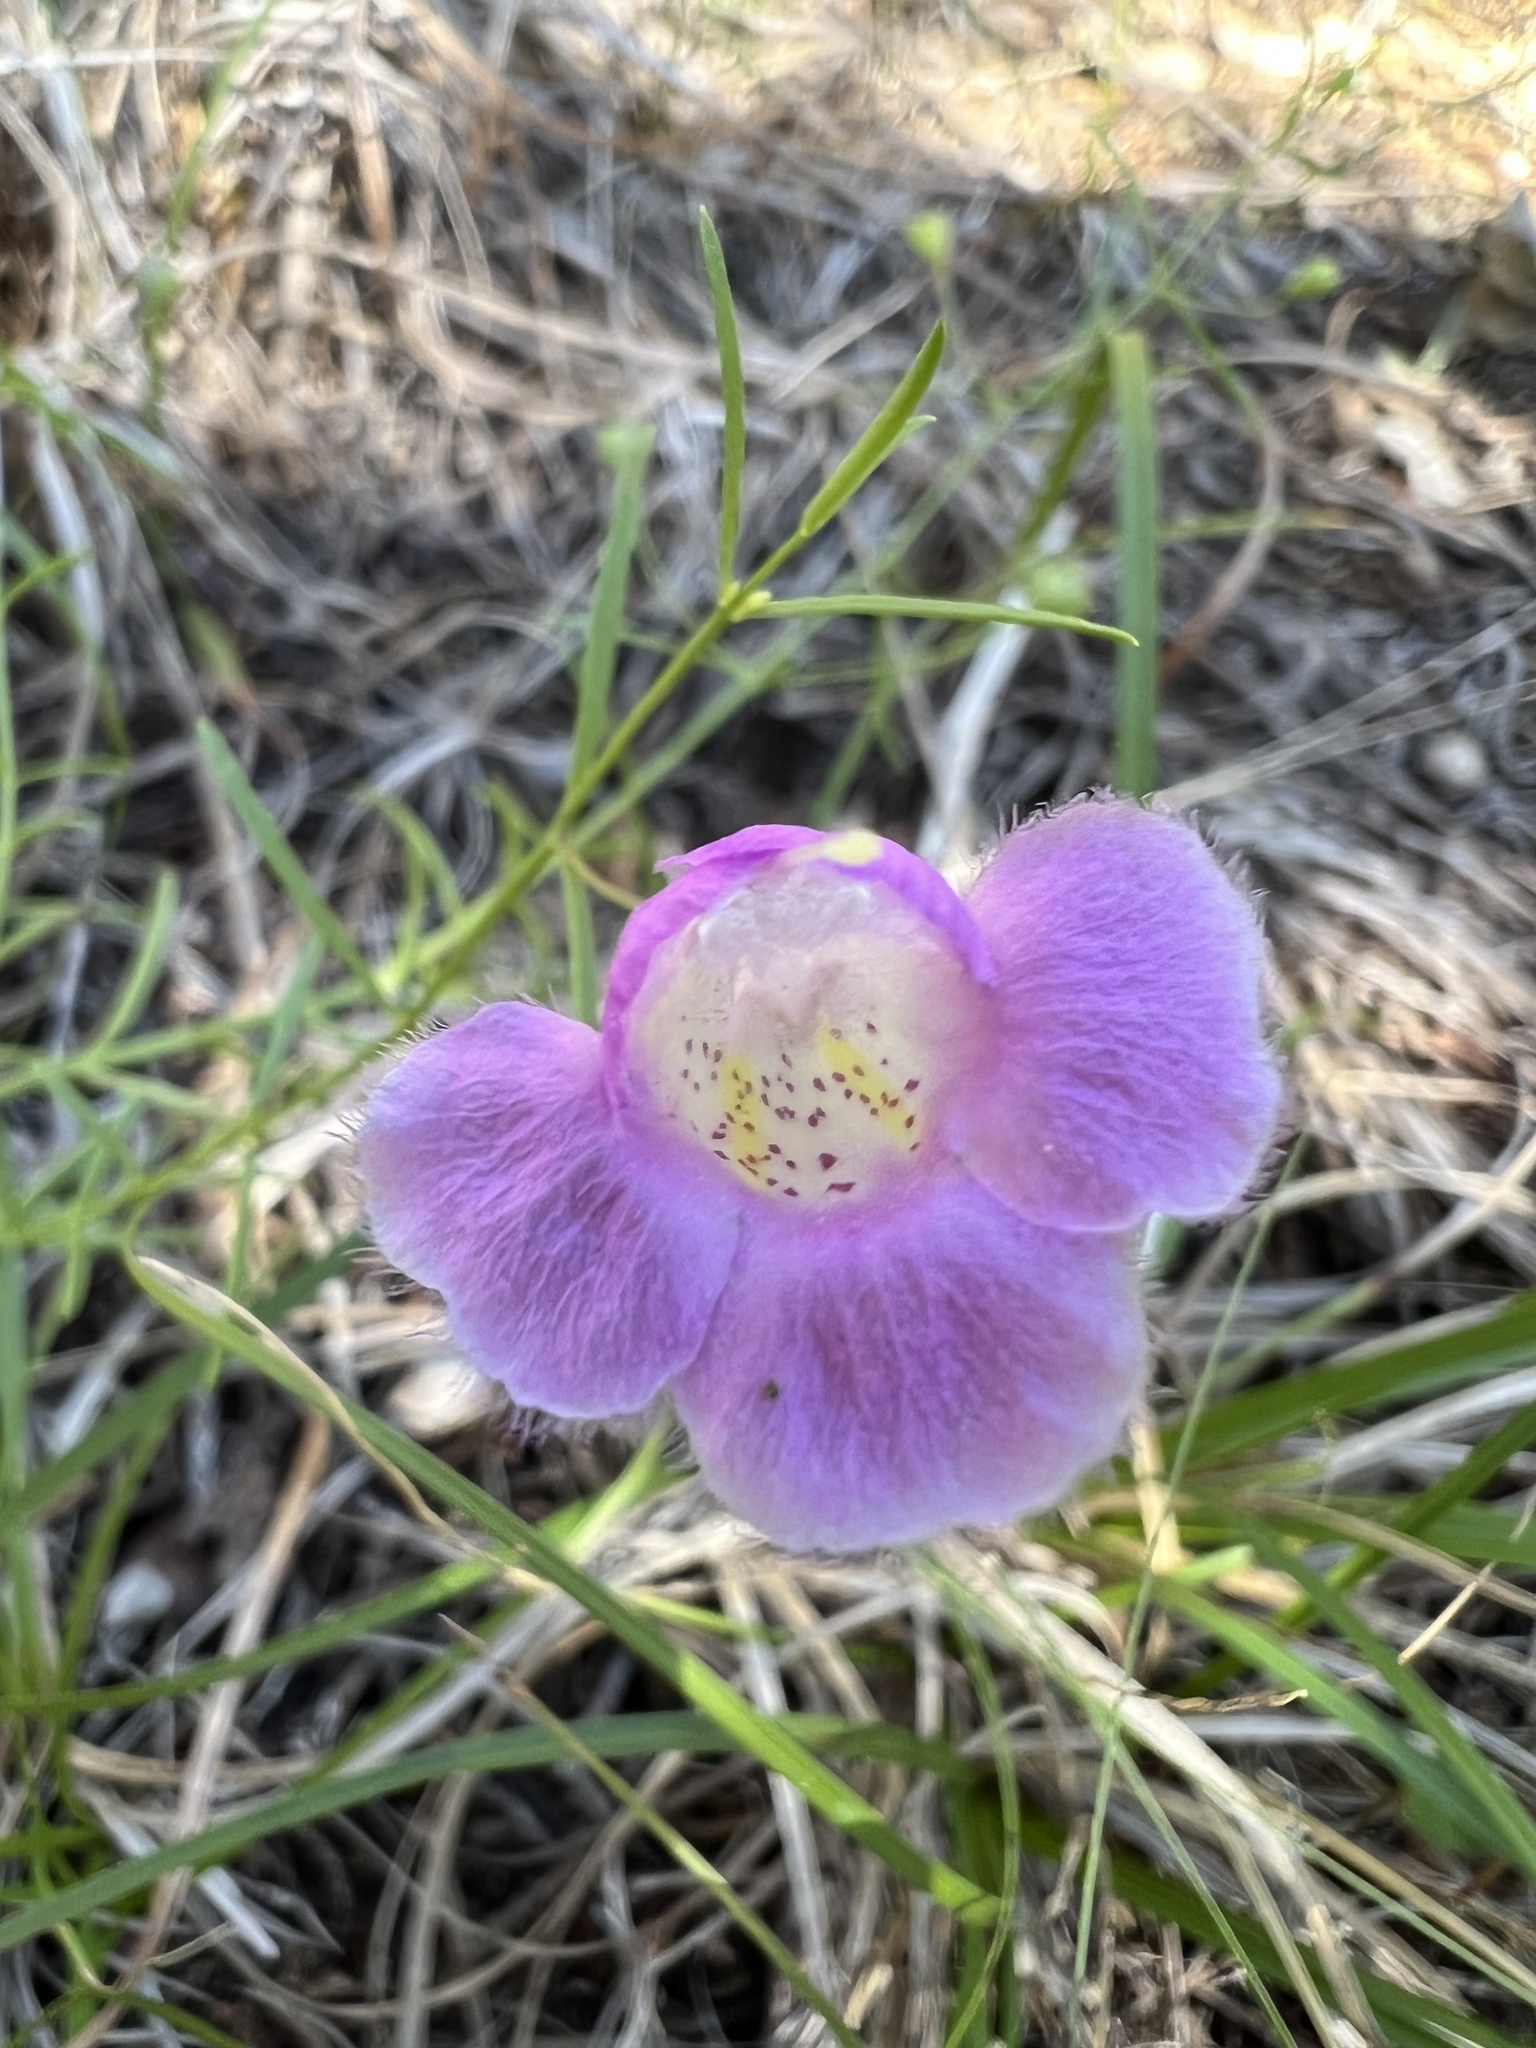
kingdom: Plantae
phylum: Tracheophyta
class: Magnoliopsida
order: Lamiales
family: Orobanchaceae
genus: Agalinis
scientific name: Agalinis edwardsiana
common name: Plateau-gerardia
